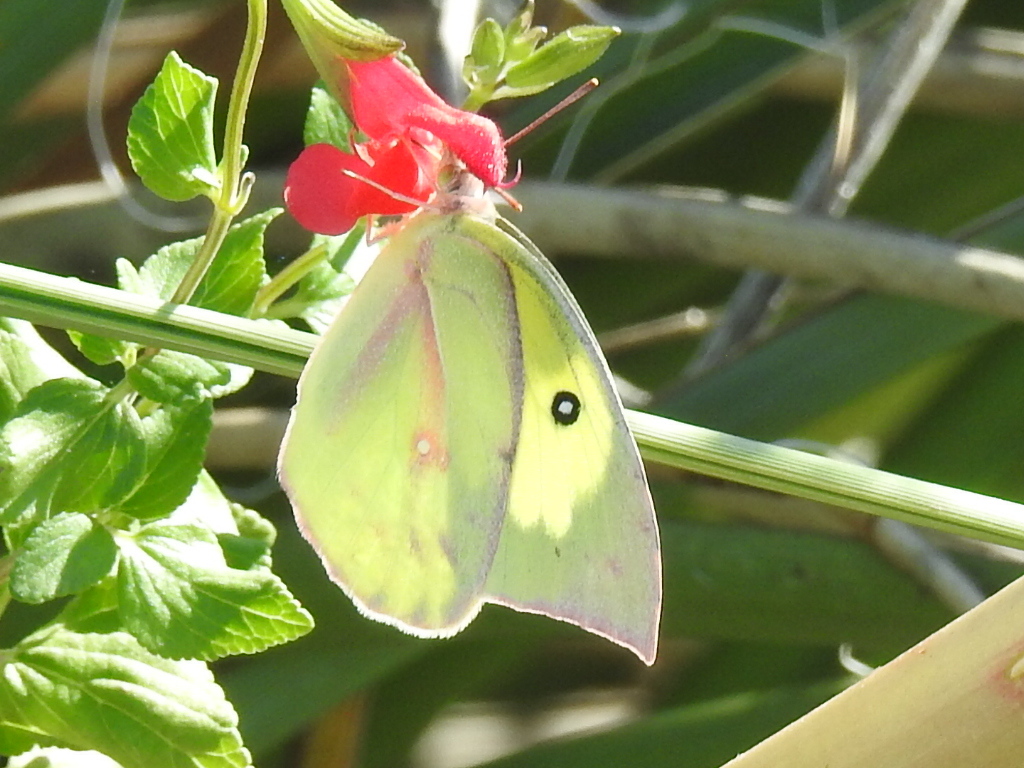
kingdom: Animalia
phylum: Arthropoda
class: Insecta
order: Lepidoptera
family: Pieridae
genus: Zerene
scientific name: Zerene cesonia
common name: Southern dogface
